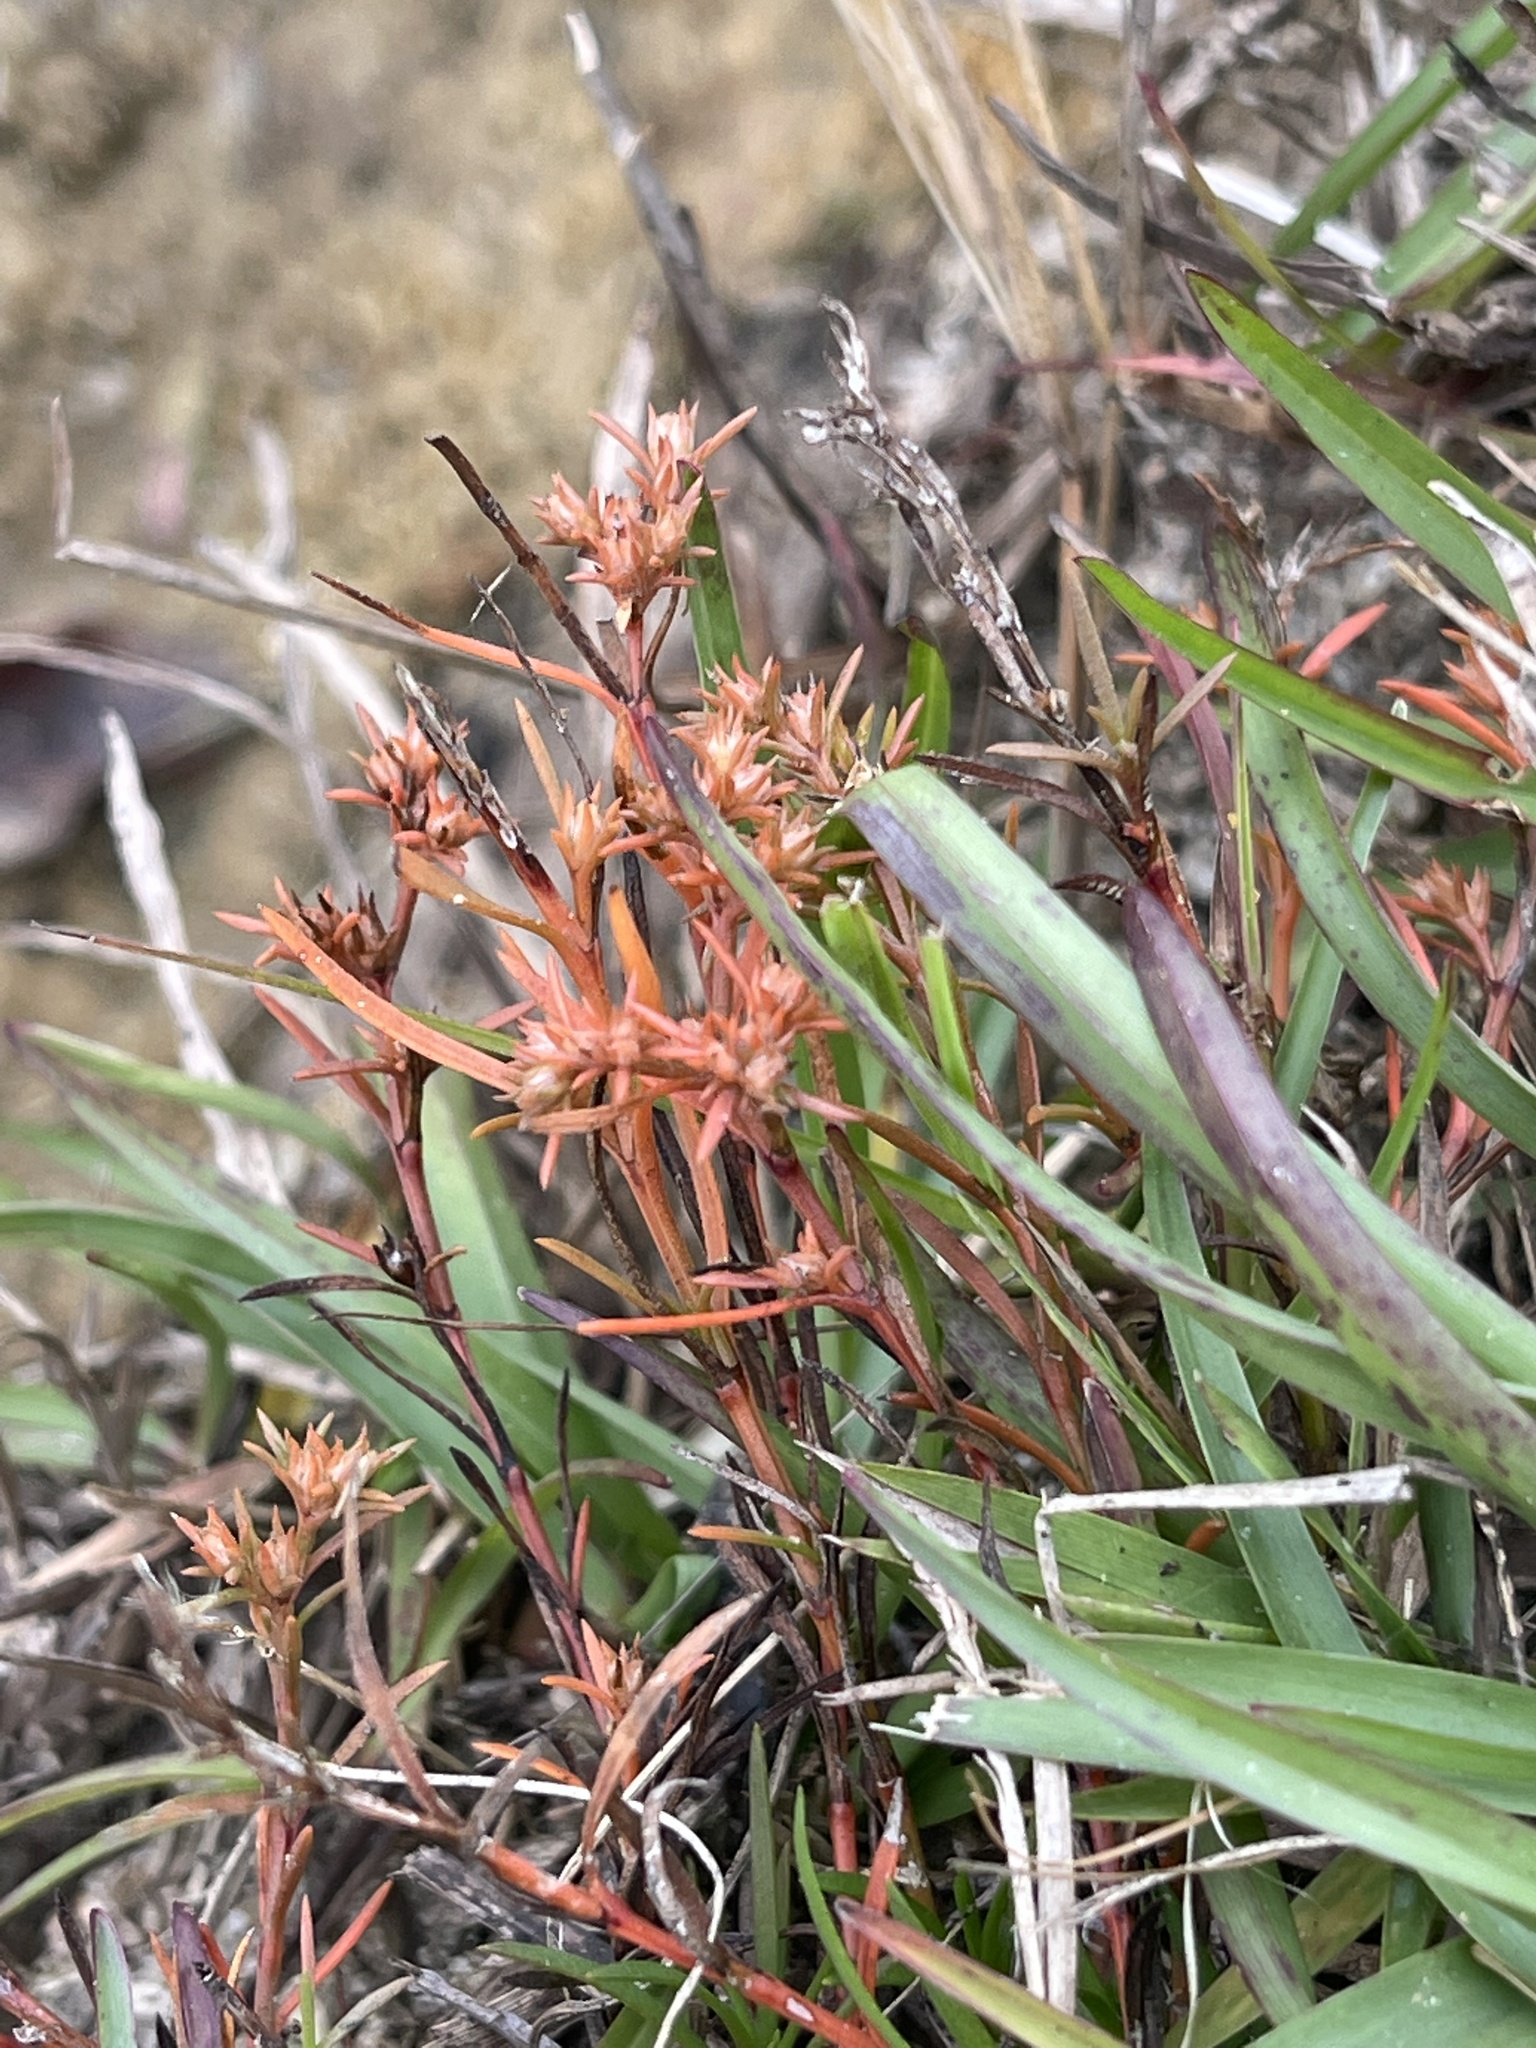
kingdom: Plantae
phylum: Tracheophyta
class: Magnoliopsida
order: Lamiales
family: Tetrachondraceae
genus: Polypremum
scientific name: Polypremum procumbens
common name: Juniper-leaf
